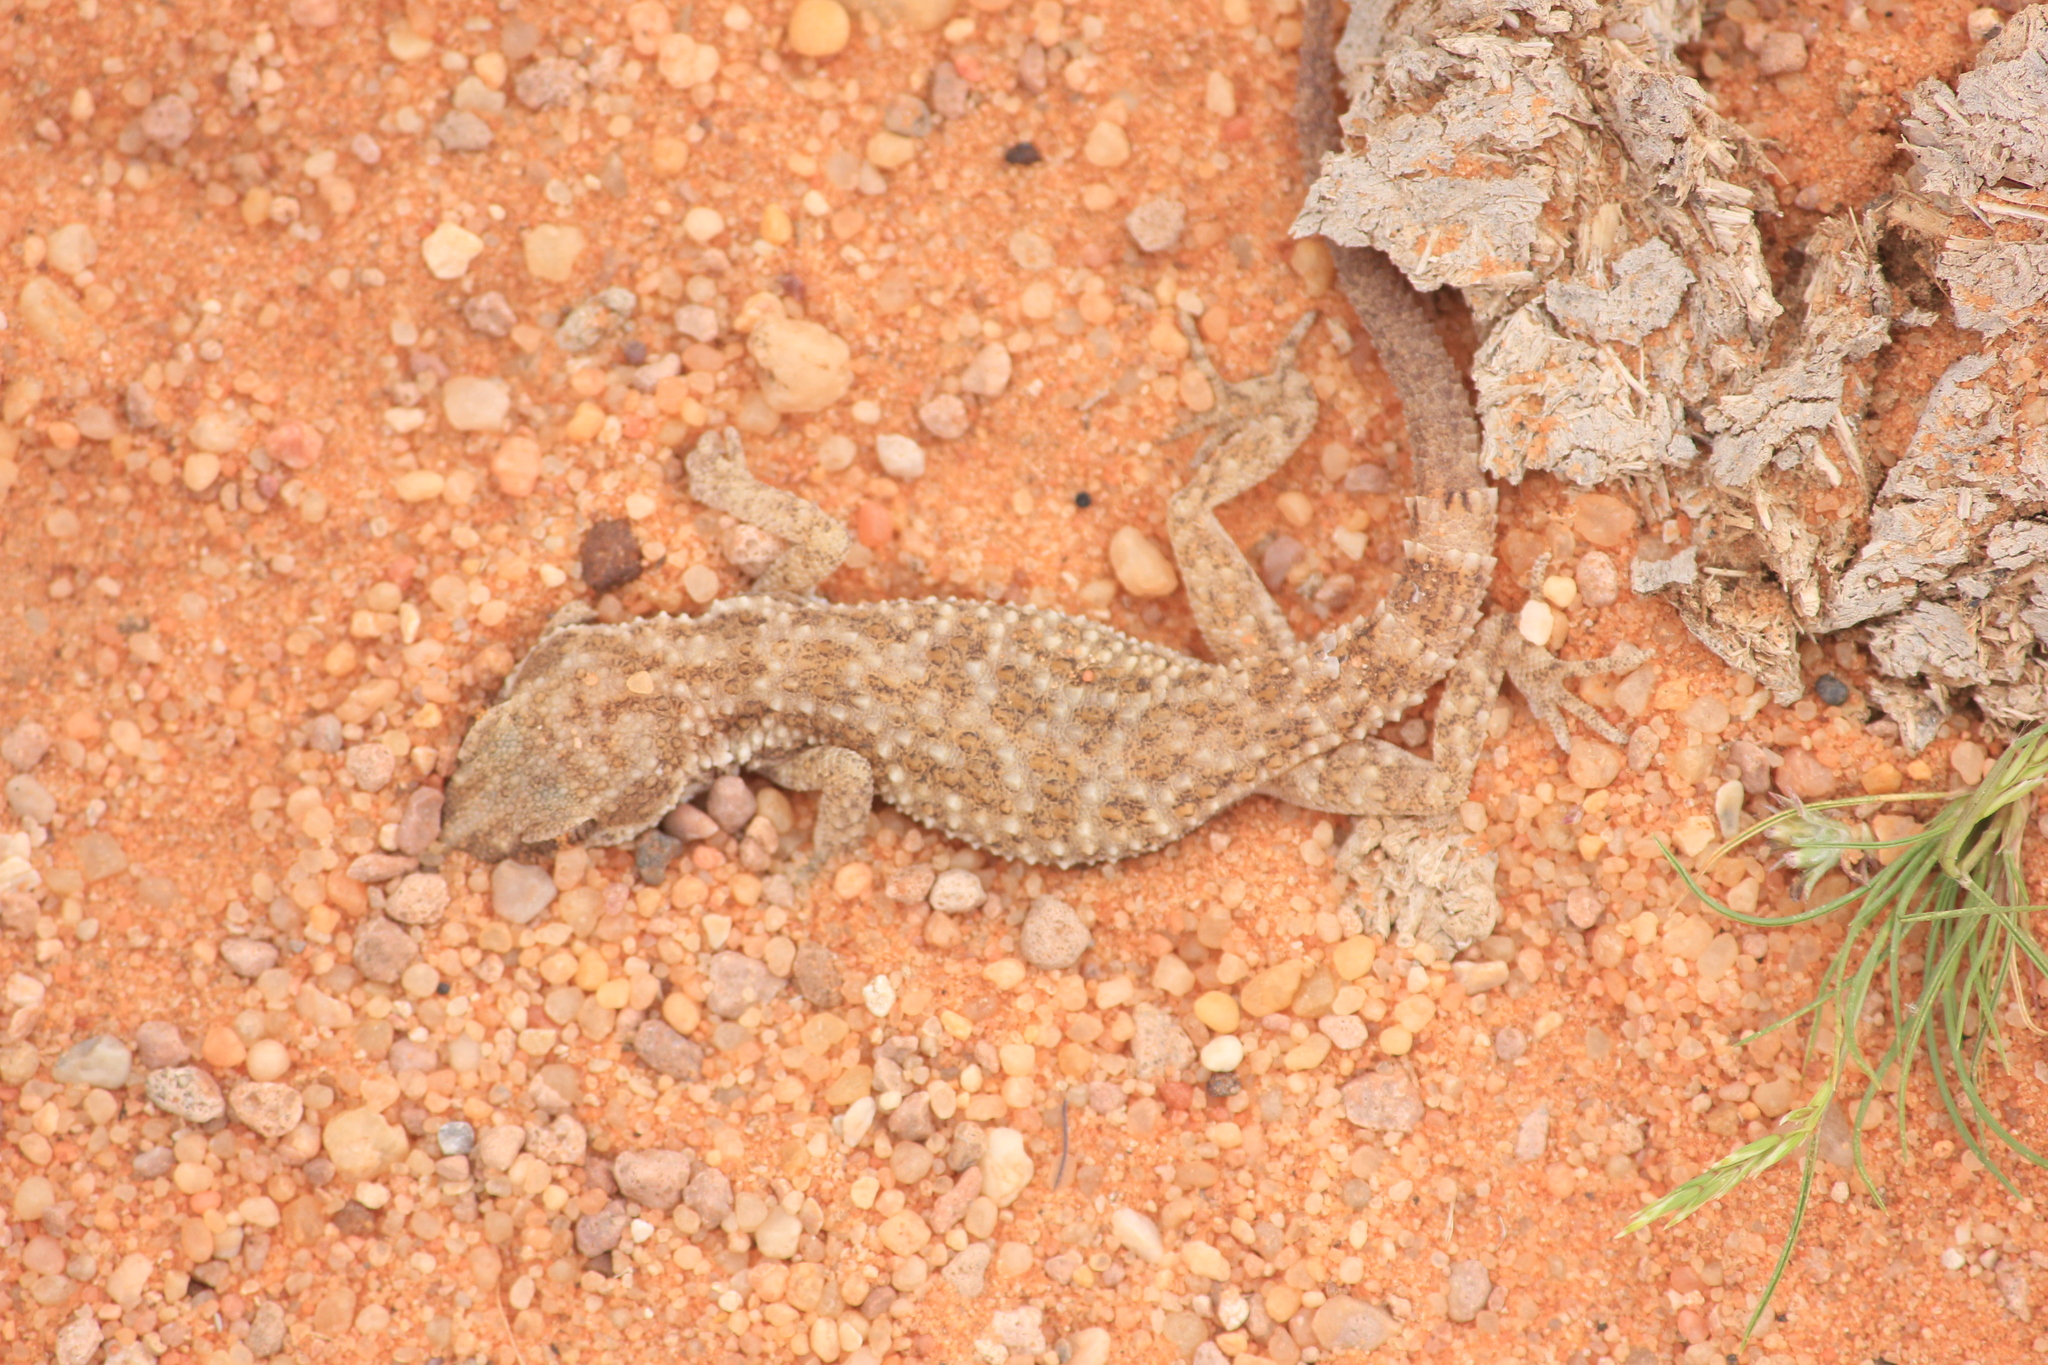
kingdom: Animalia
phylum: Chordata
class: Squamata
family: Gekkonidae
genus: Bunopus
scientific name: Bunopus tuberculatus
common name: Southern tuberculated gecko
